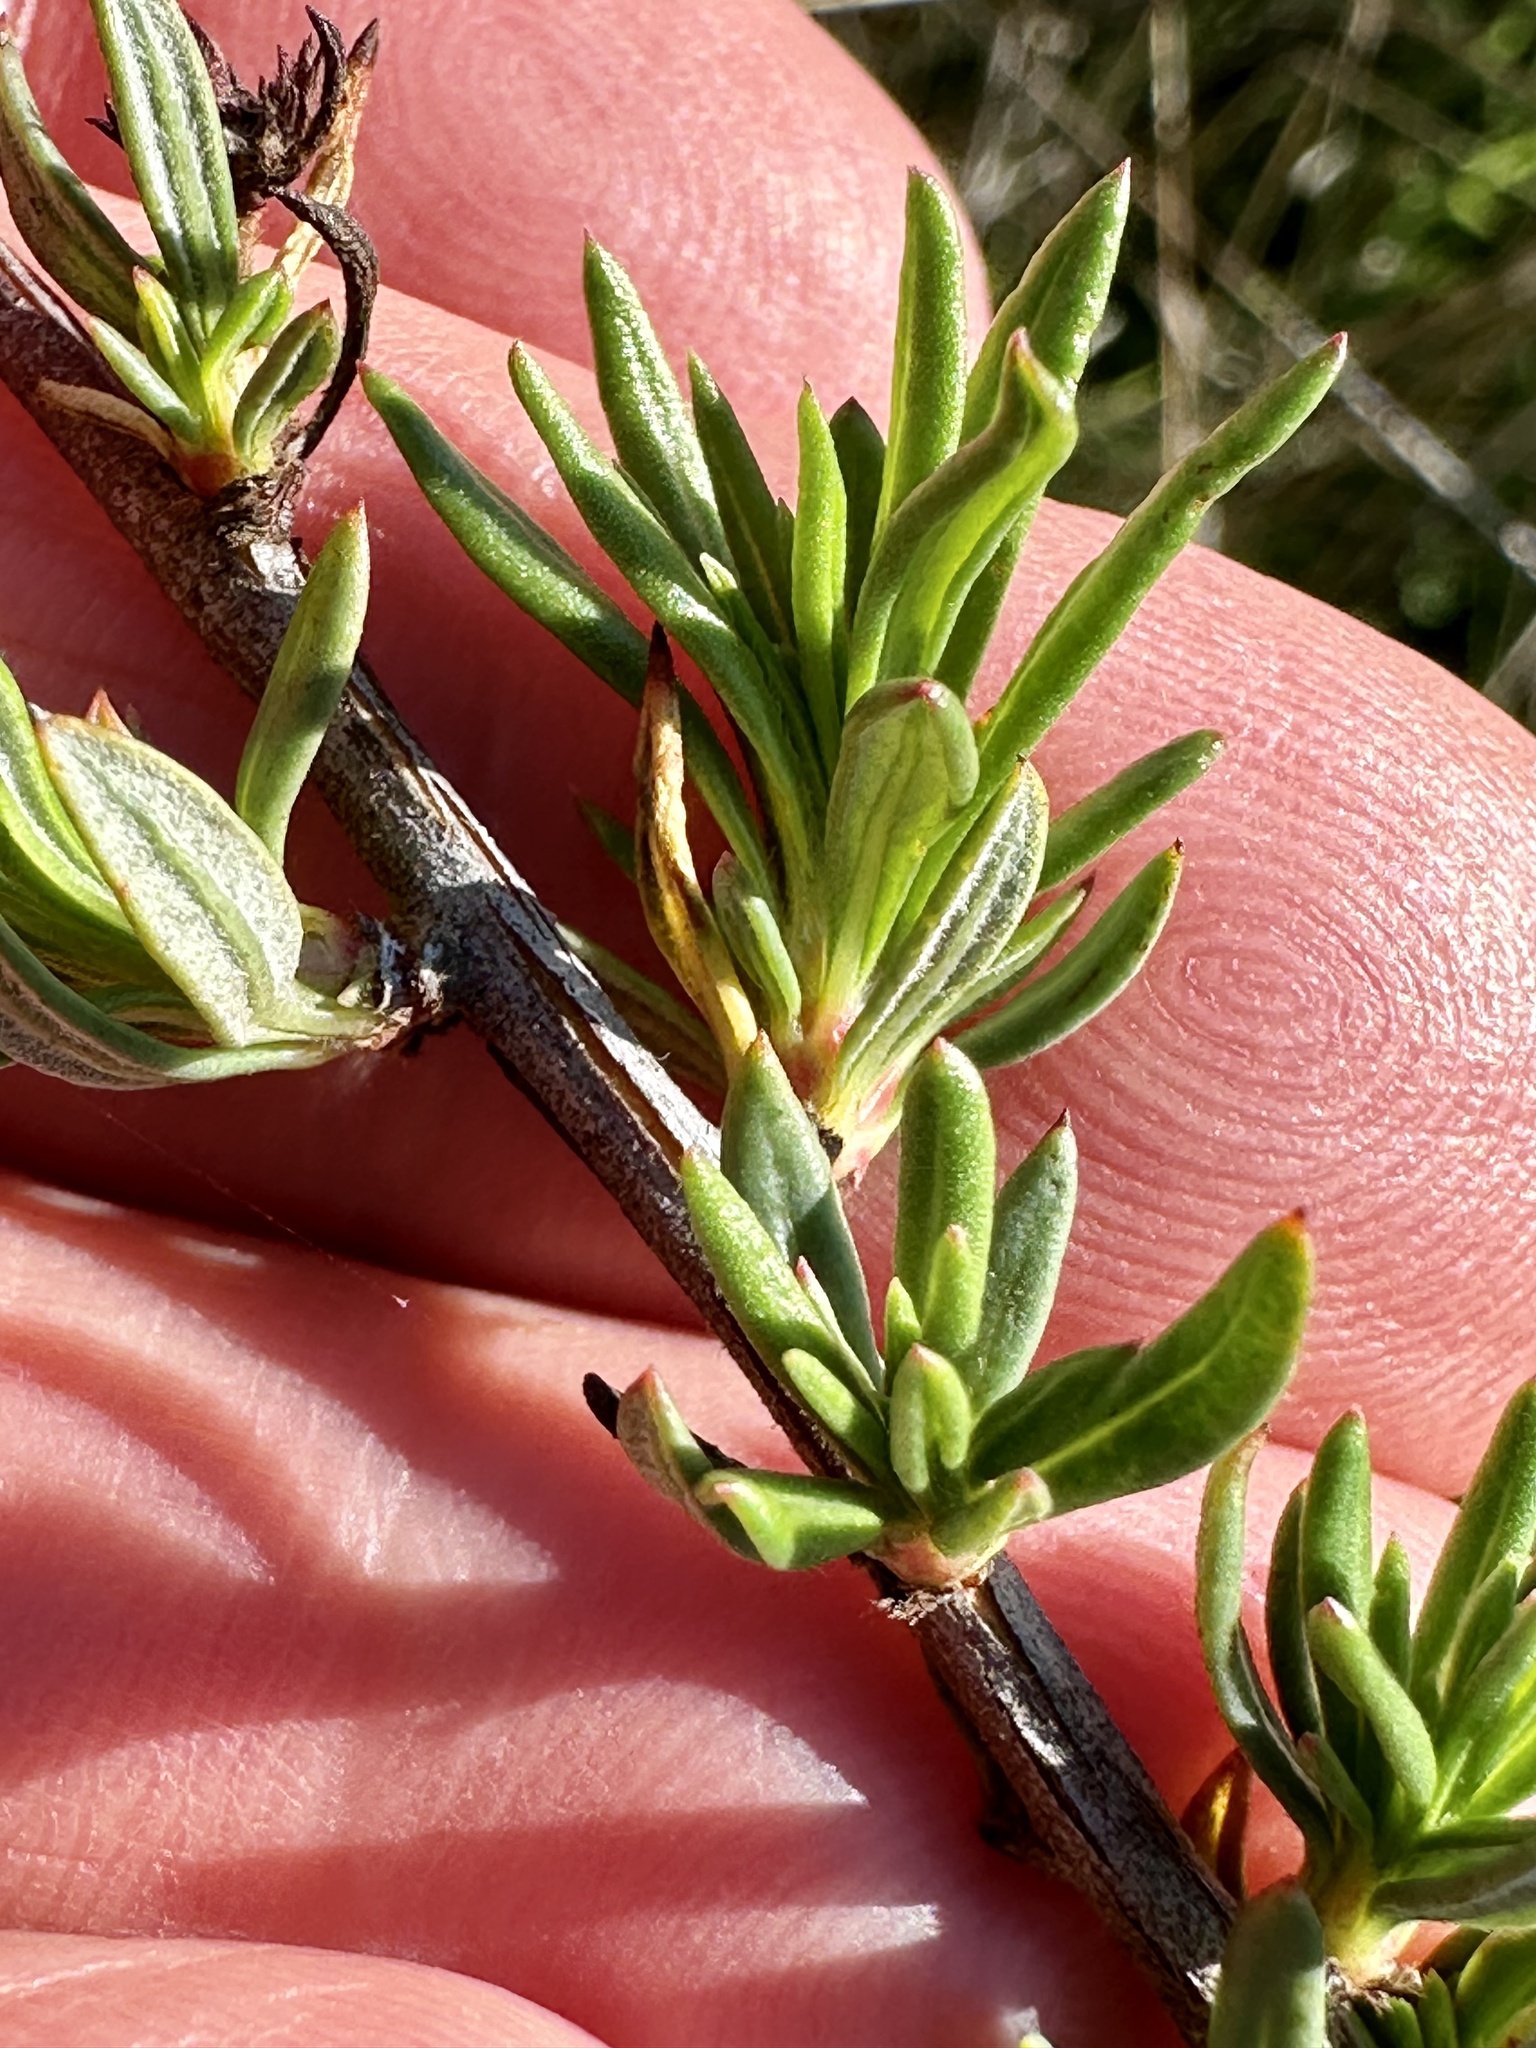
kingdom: Plantae
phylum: Tracheophyta
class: Magnoliopsida
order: Caryophyllales
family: Polygonaceae
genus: Eriogonum
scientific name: Eriogonum fasciculatum
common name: California wild buckwheat
